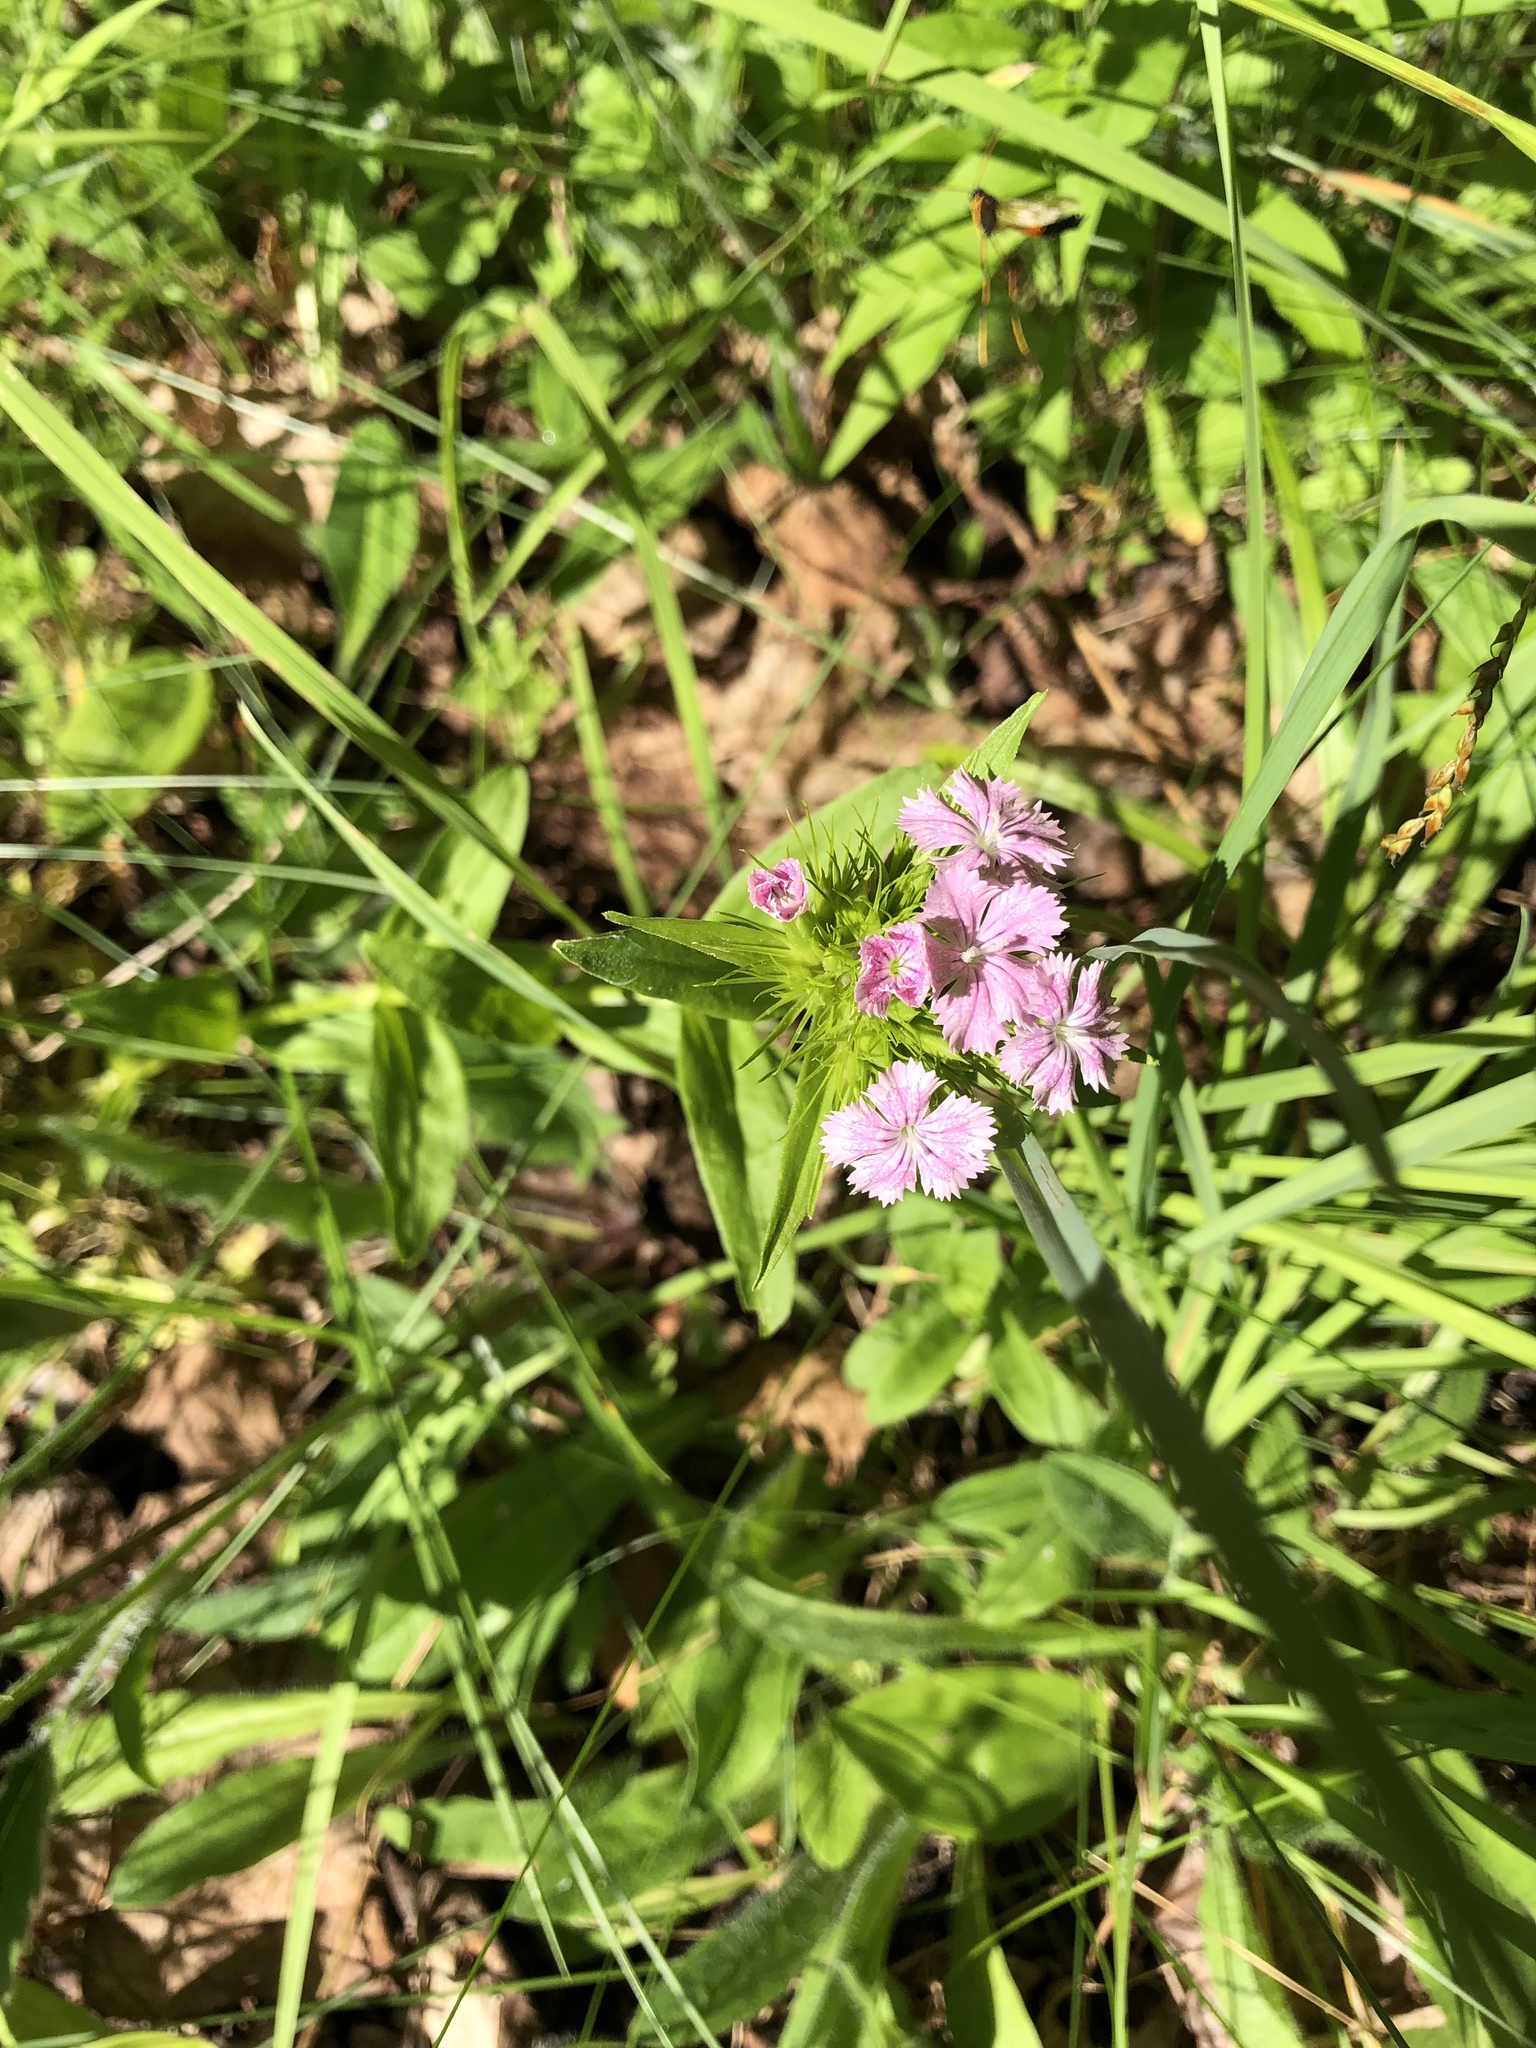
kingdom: Plantae
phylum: Tracheophyta
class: Magnoliopsida
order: Caryophyllales
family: Caryophyllaceae
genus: Dianthus
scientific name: Dianthus barbatus
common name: Sweet-william
